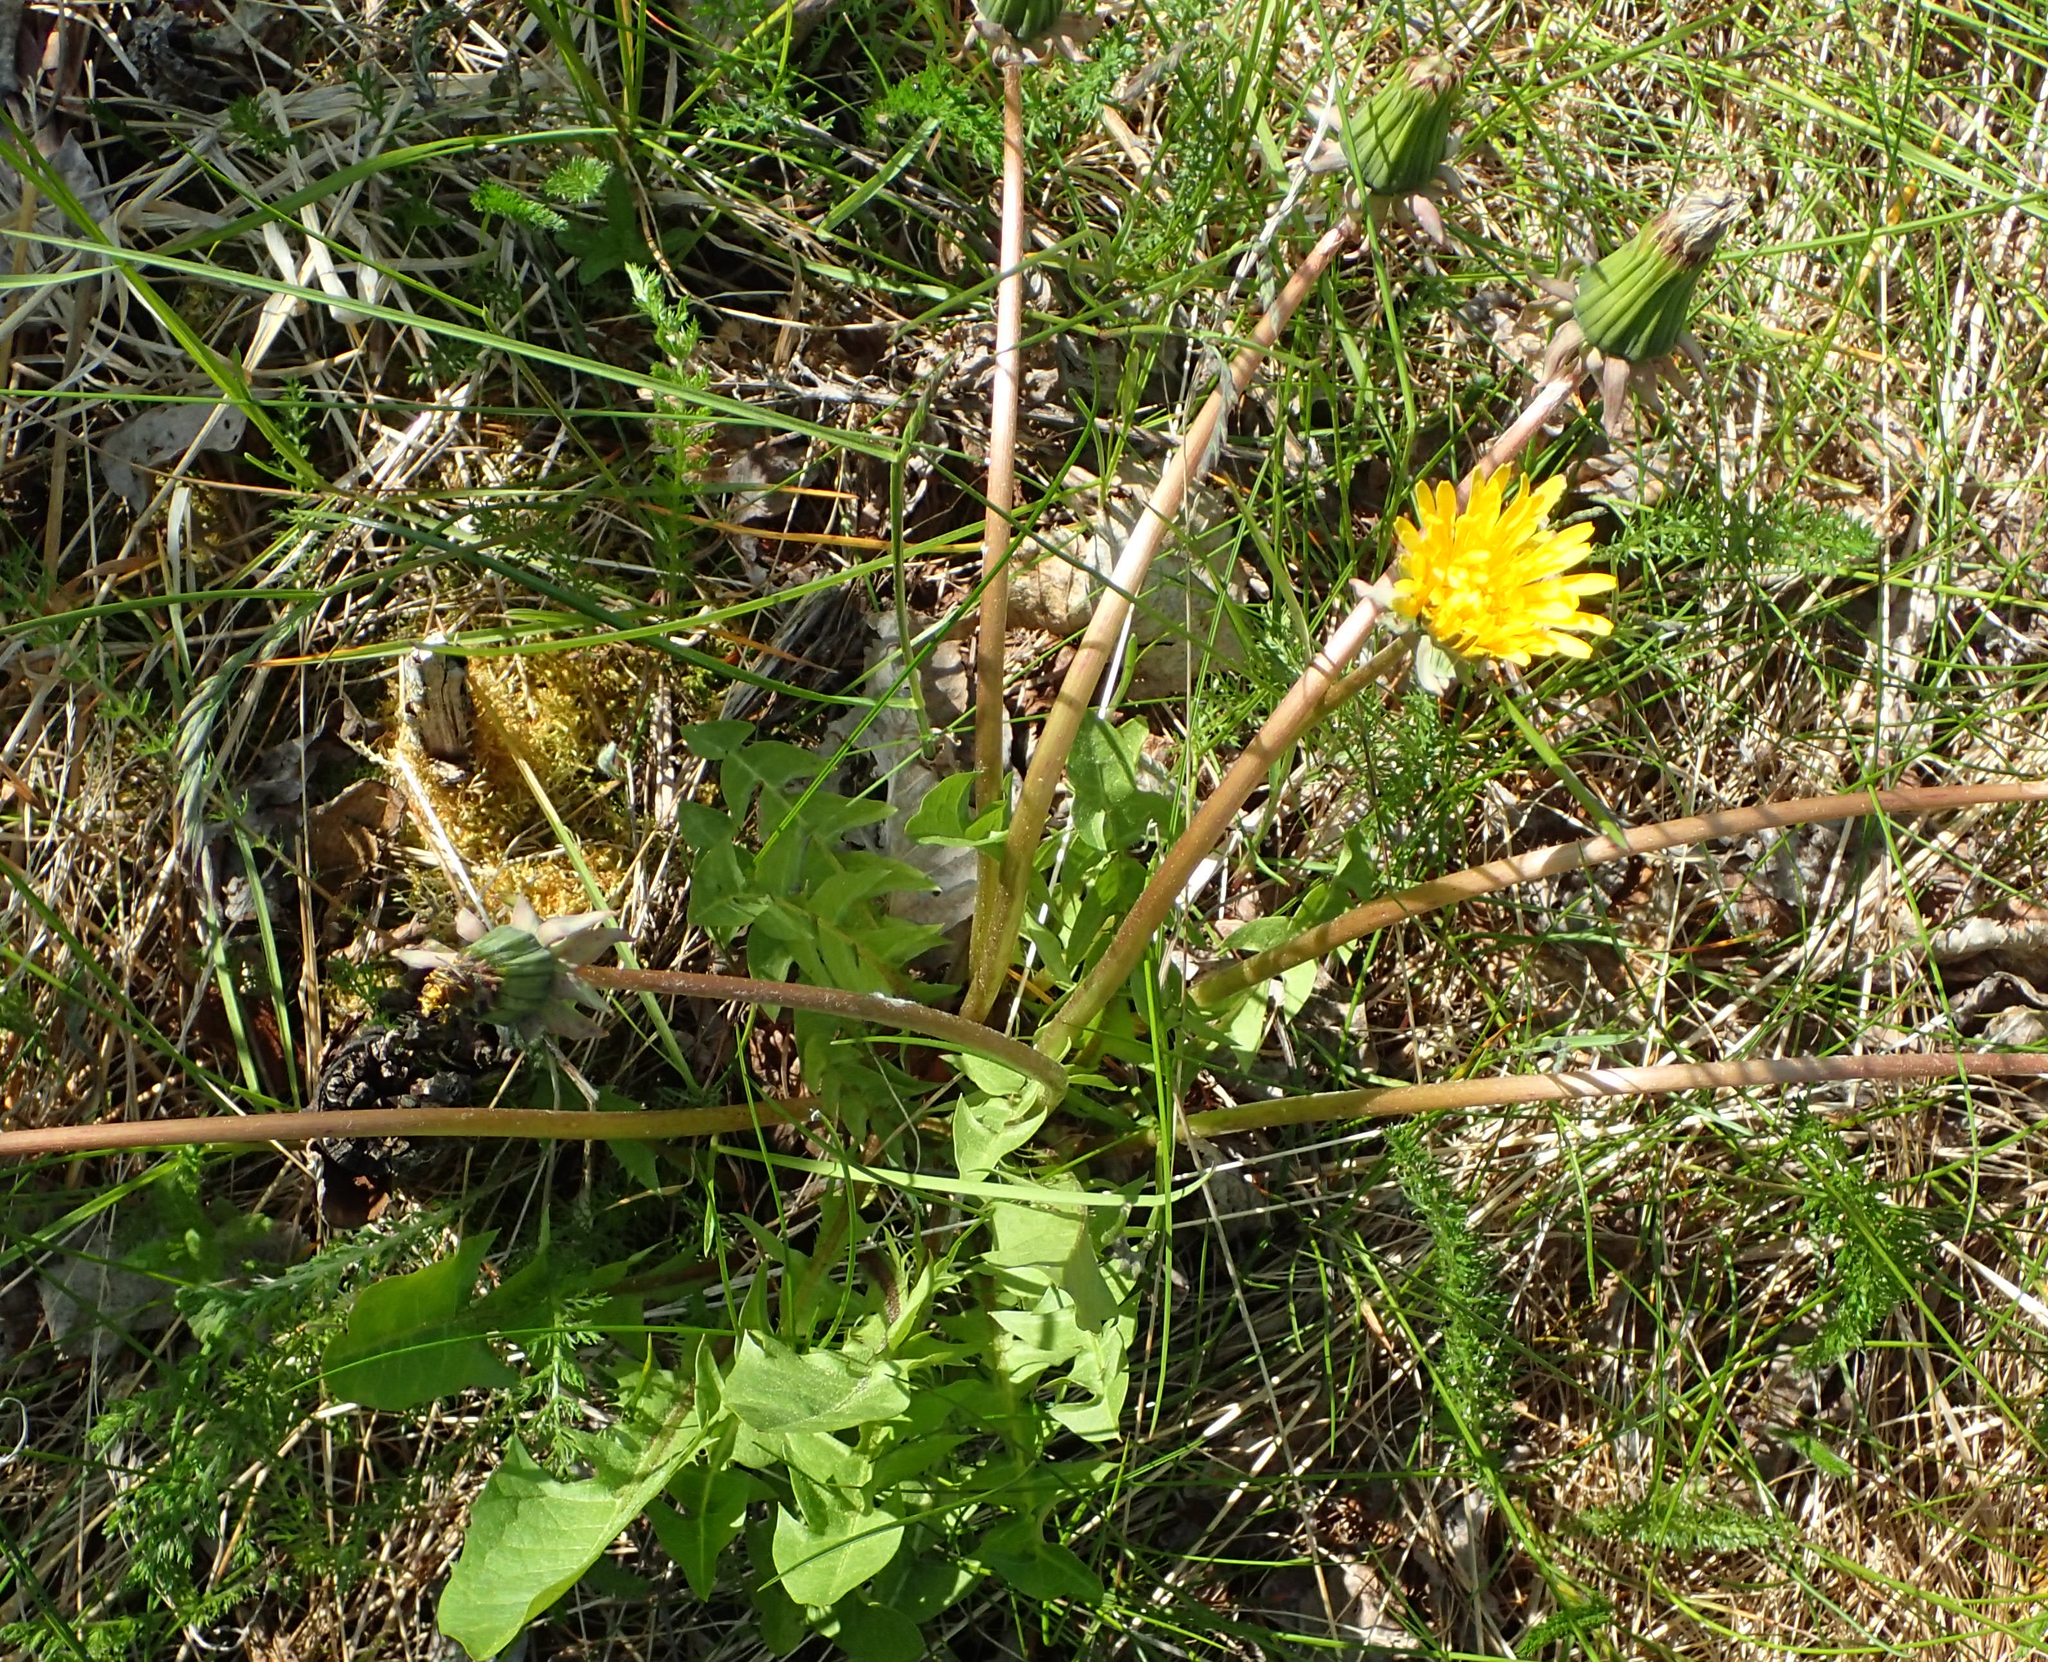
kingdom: Plantae
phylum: Tracheophyta
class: Magnoliopsida
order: Asterales
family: Asteraceae
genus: Taraxacum
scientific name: Taraxacum officinale
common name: Common dandelion
